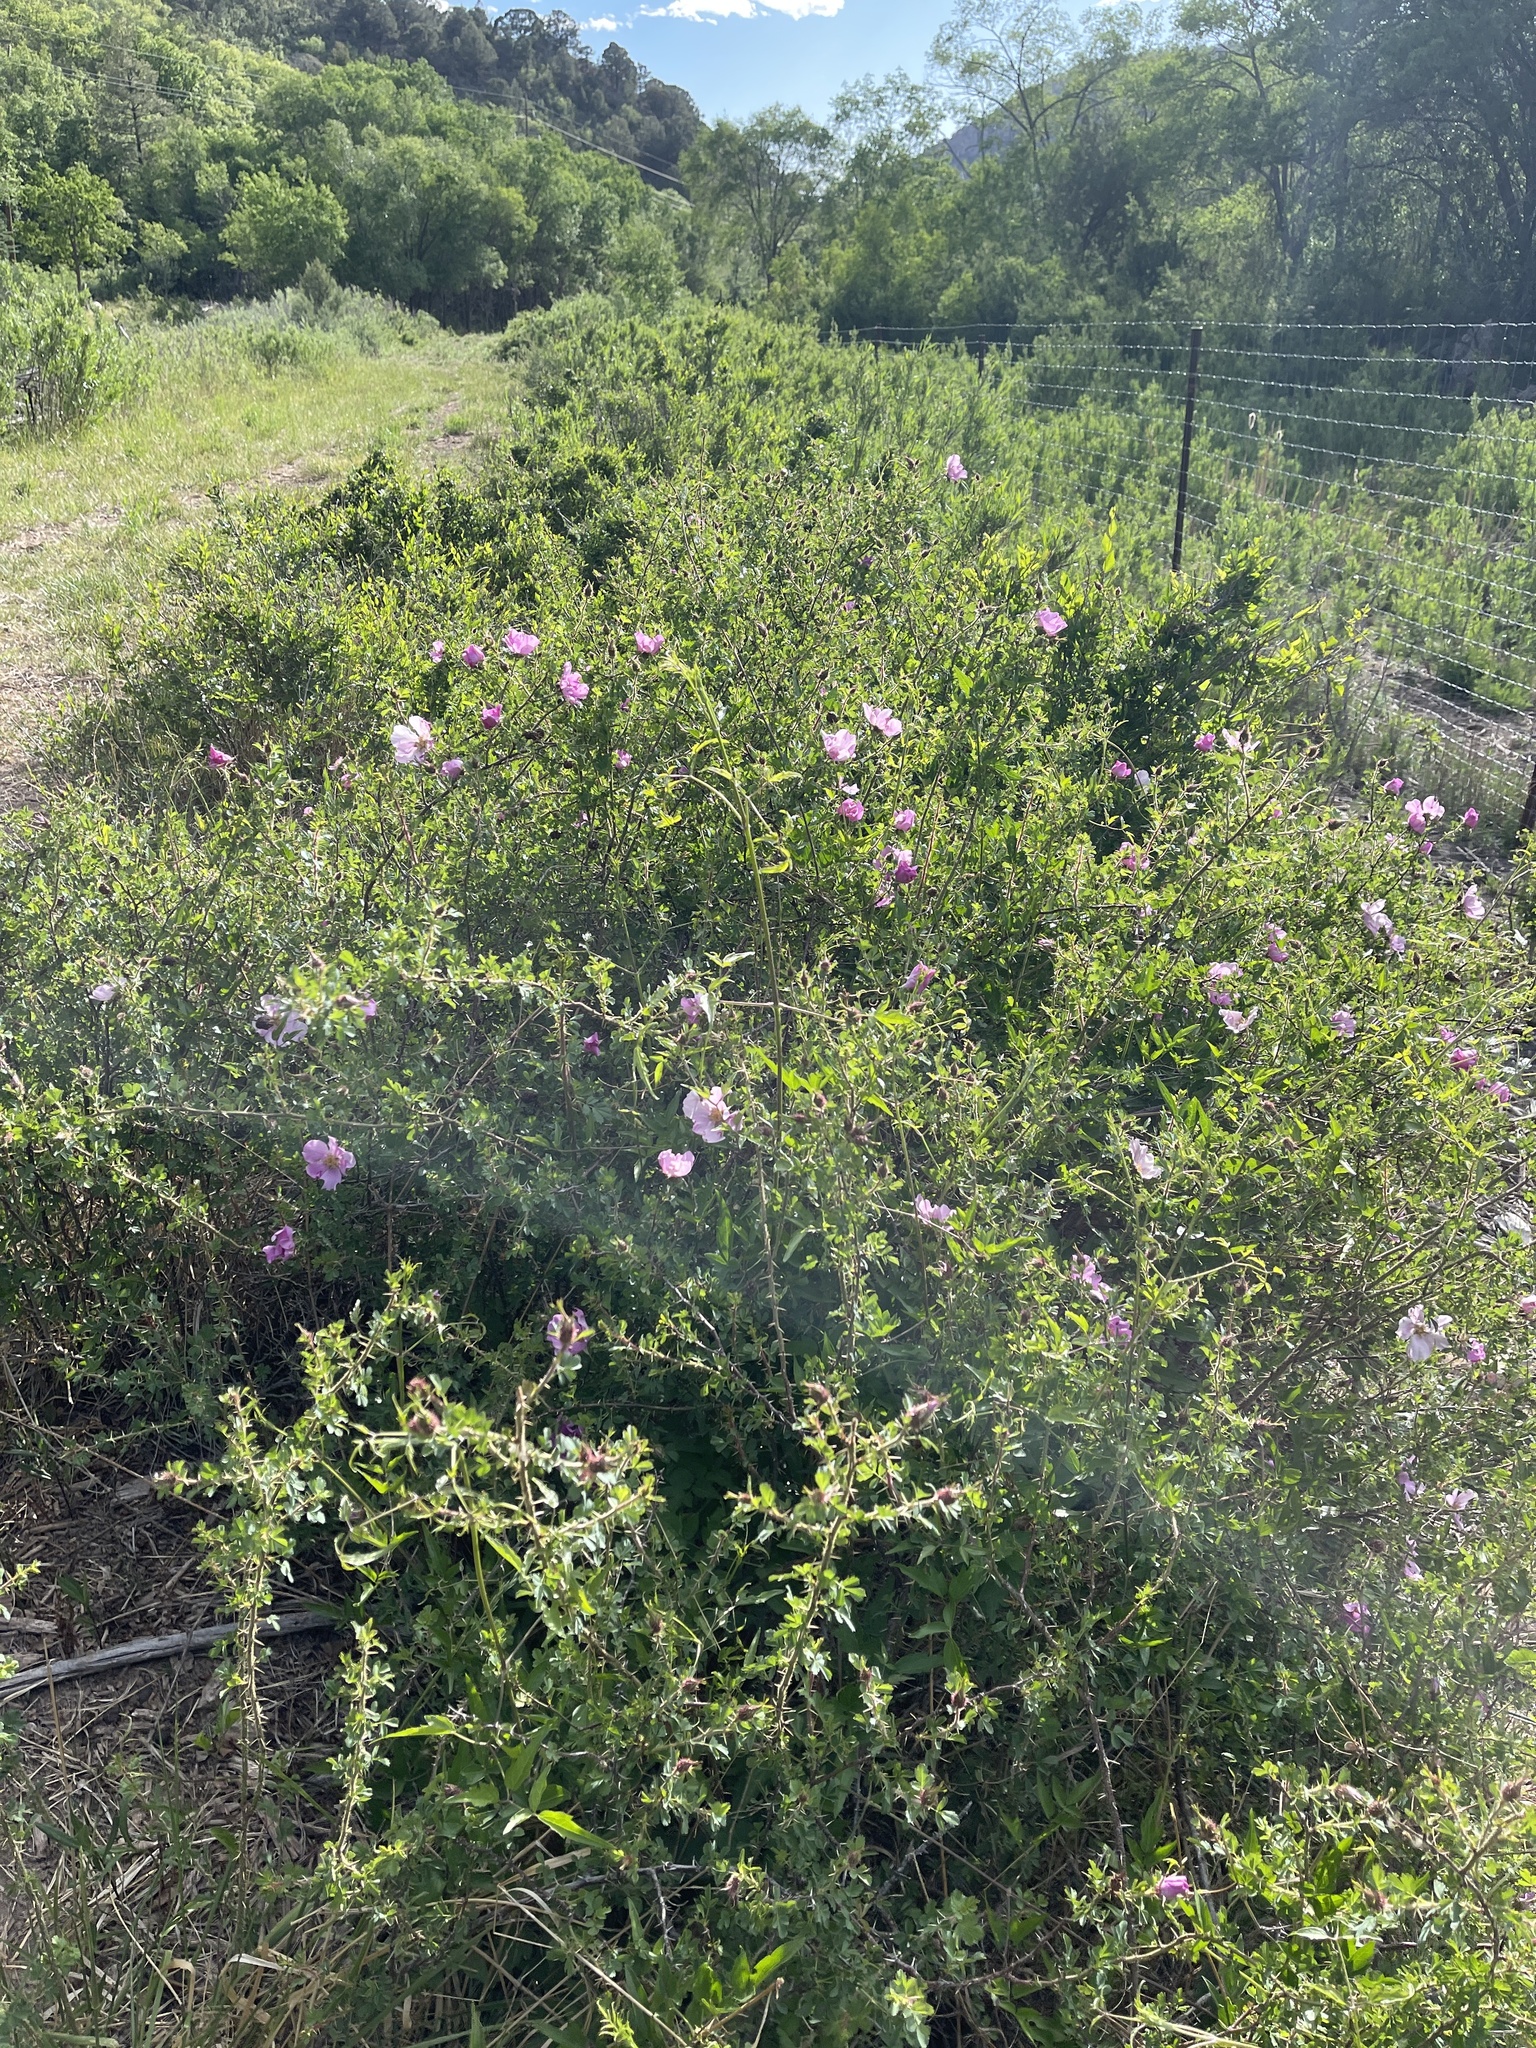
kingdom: Plantae
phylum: Tracheophyta
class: Magnoliopsida
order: Rosales
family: Rosaceae
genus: Rosa
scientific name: Rosa woodsii
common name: Woods's rose
